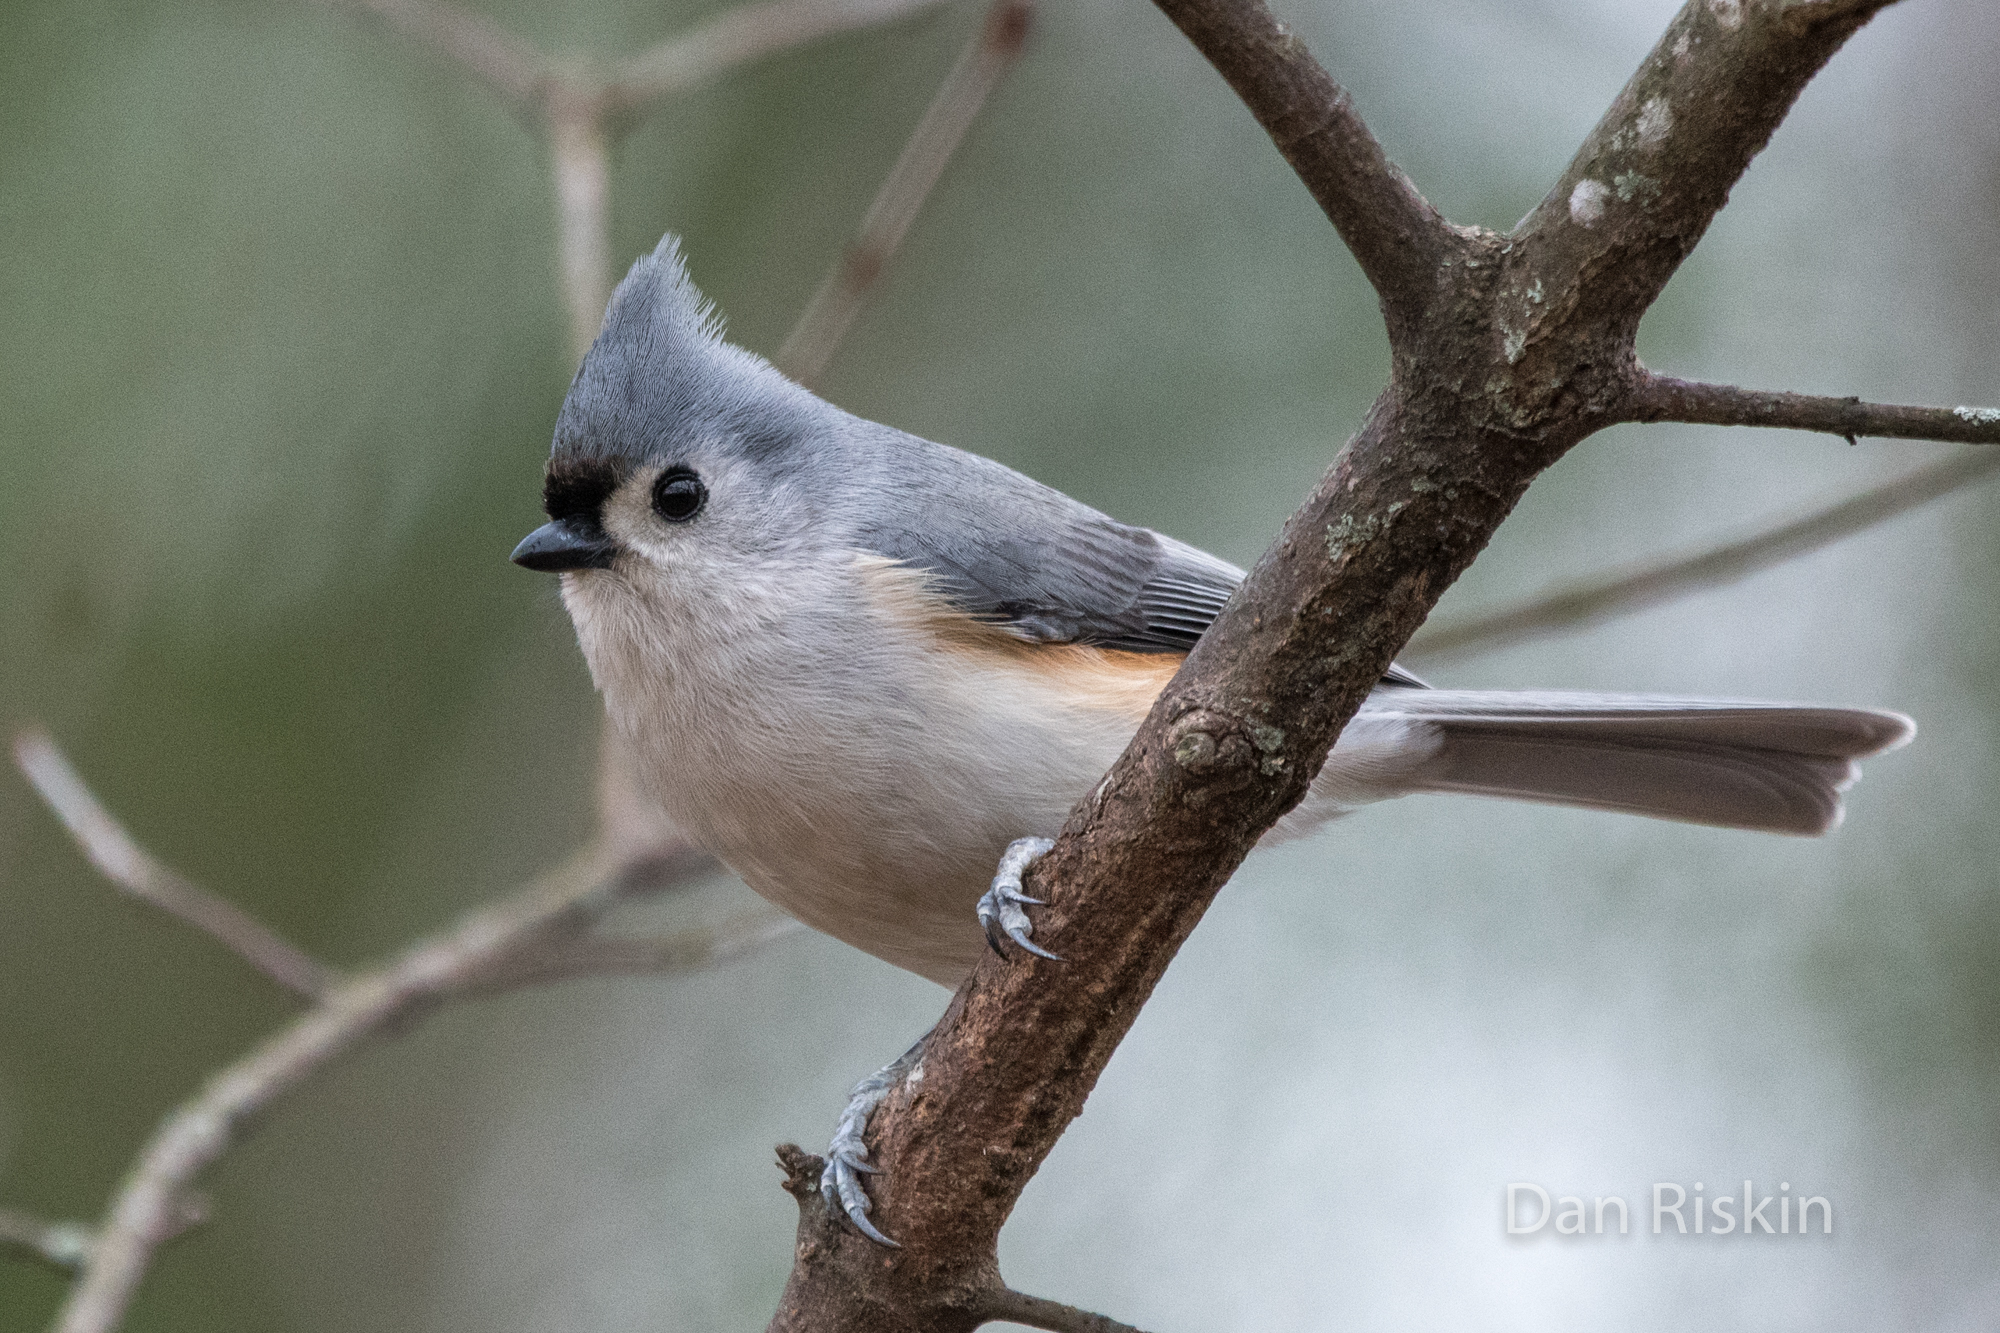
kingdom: Animalia
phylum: Chordata
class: Aves
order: Passeriformes
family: Paridae
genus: Baeolophus
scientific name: Baeolophus bicolor
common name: Tufted titmouse
